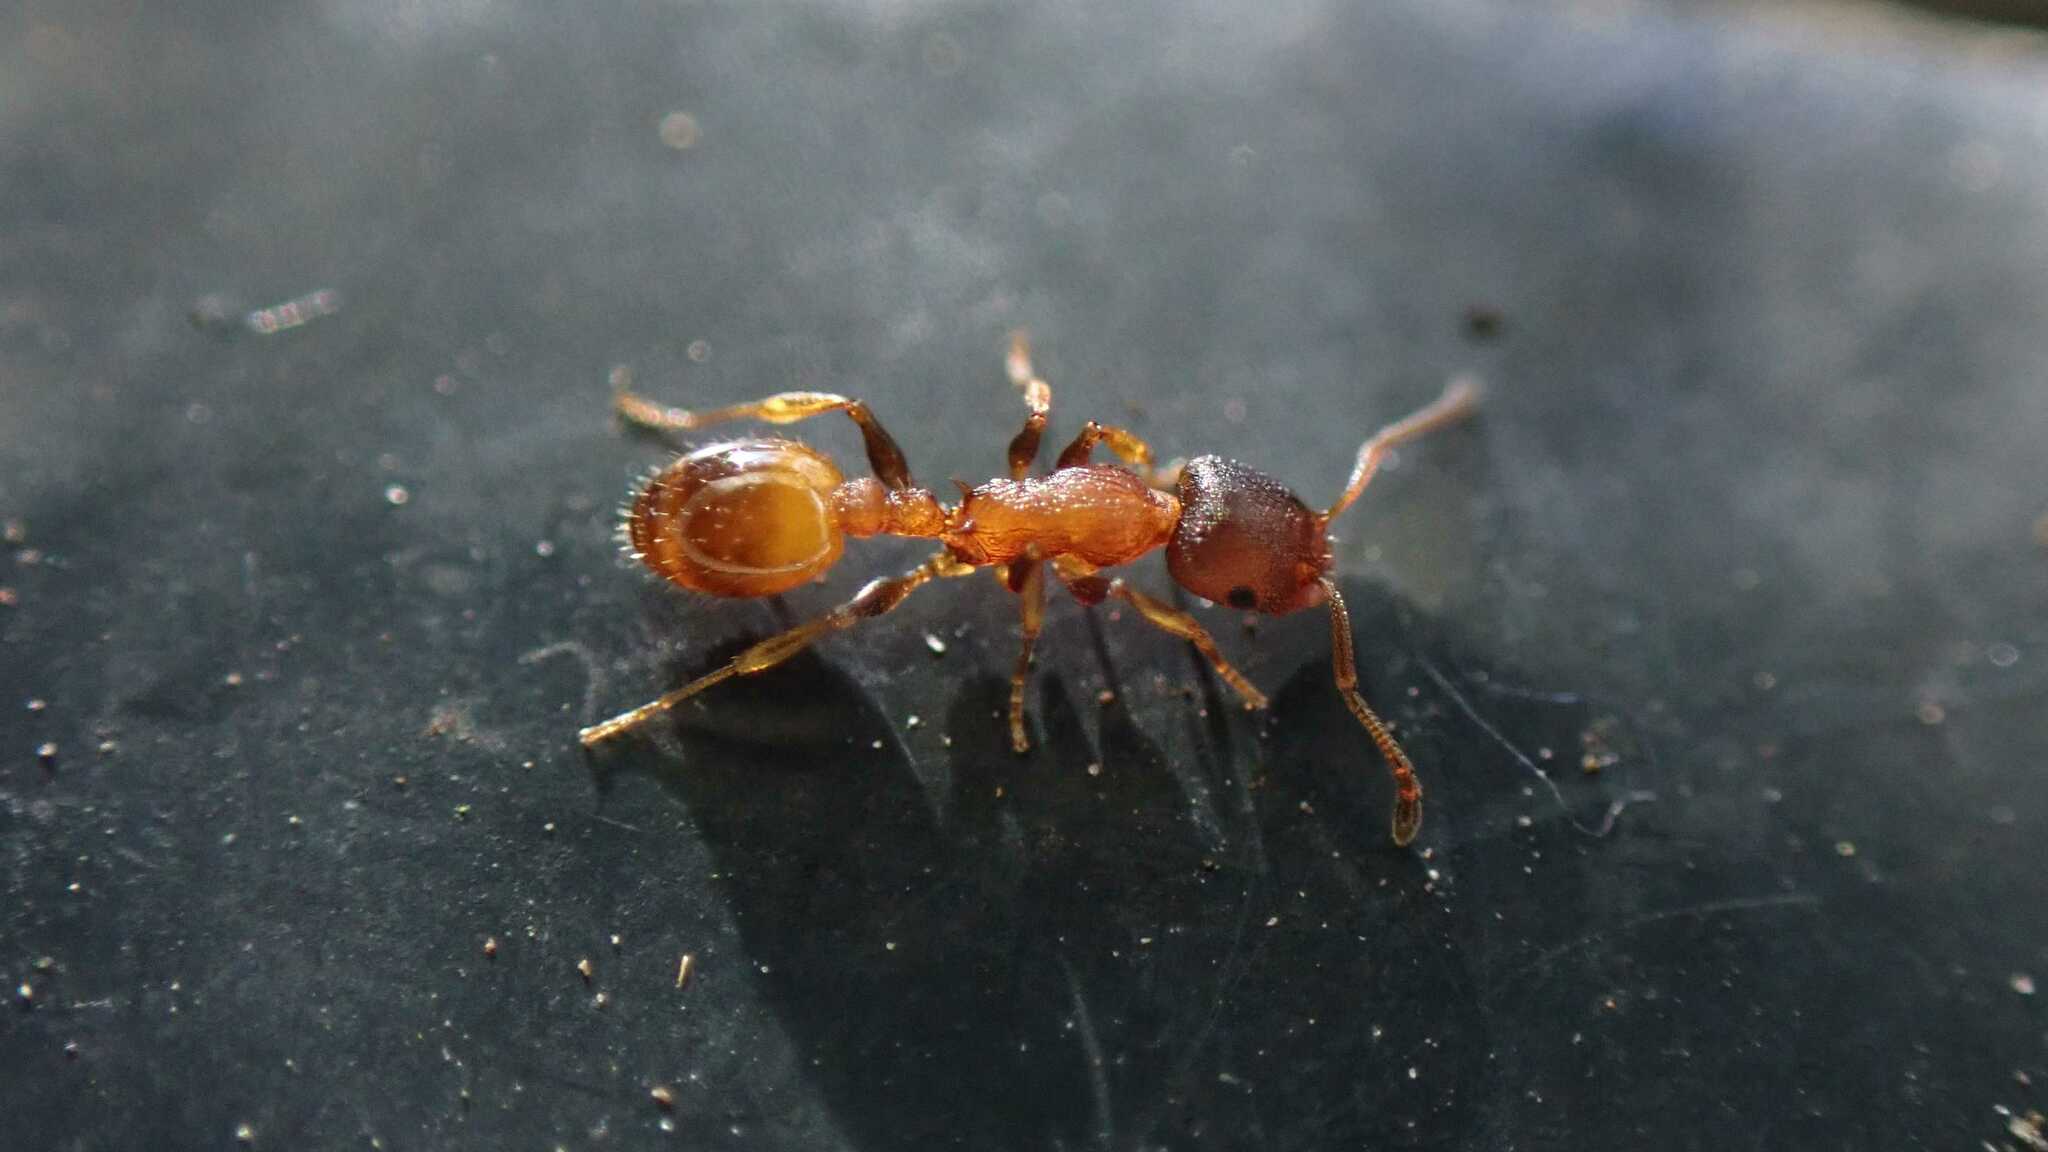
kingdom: Animalia
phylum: Arthropoda
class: Insecta
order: Hymenoptera
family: Formicidae
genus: Temnothorax
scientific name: Temnothorax
